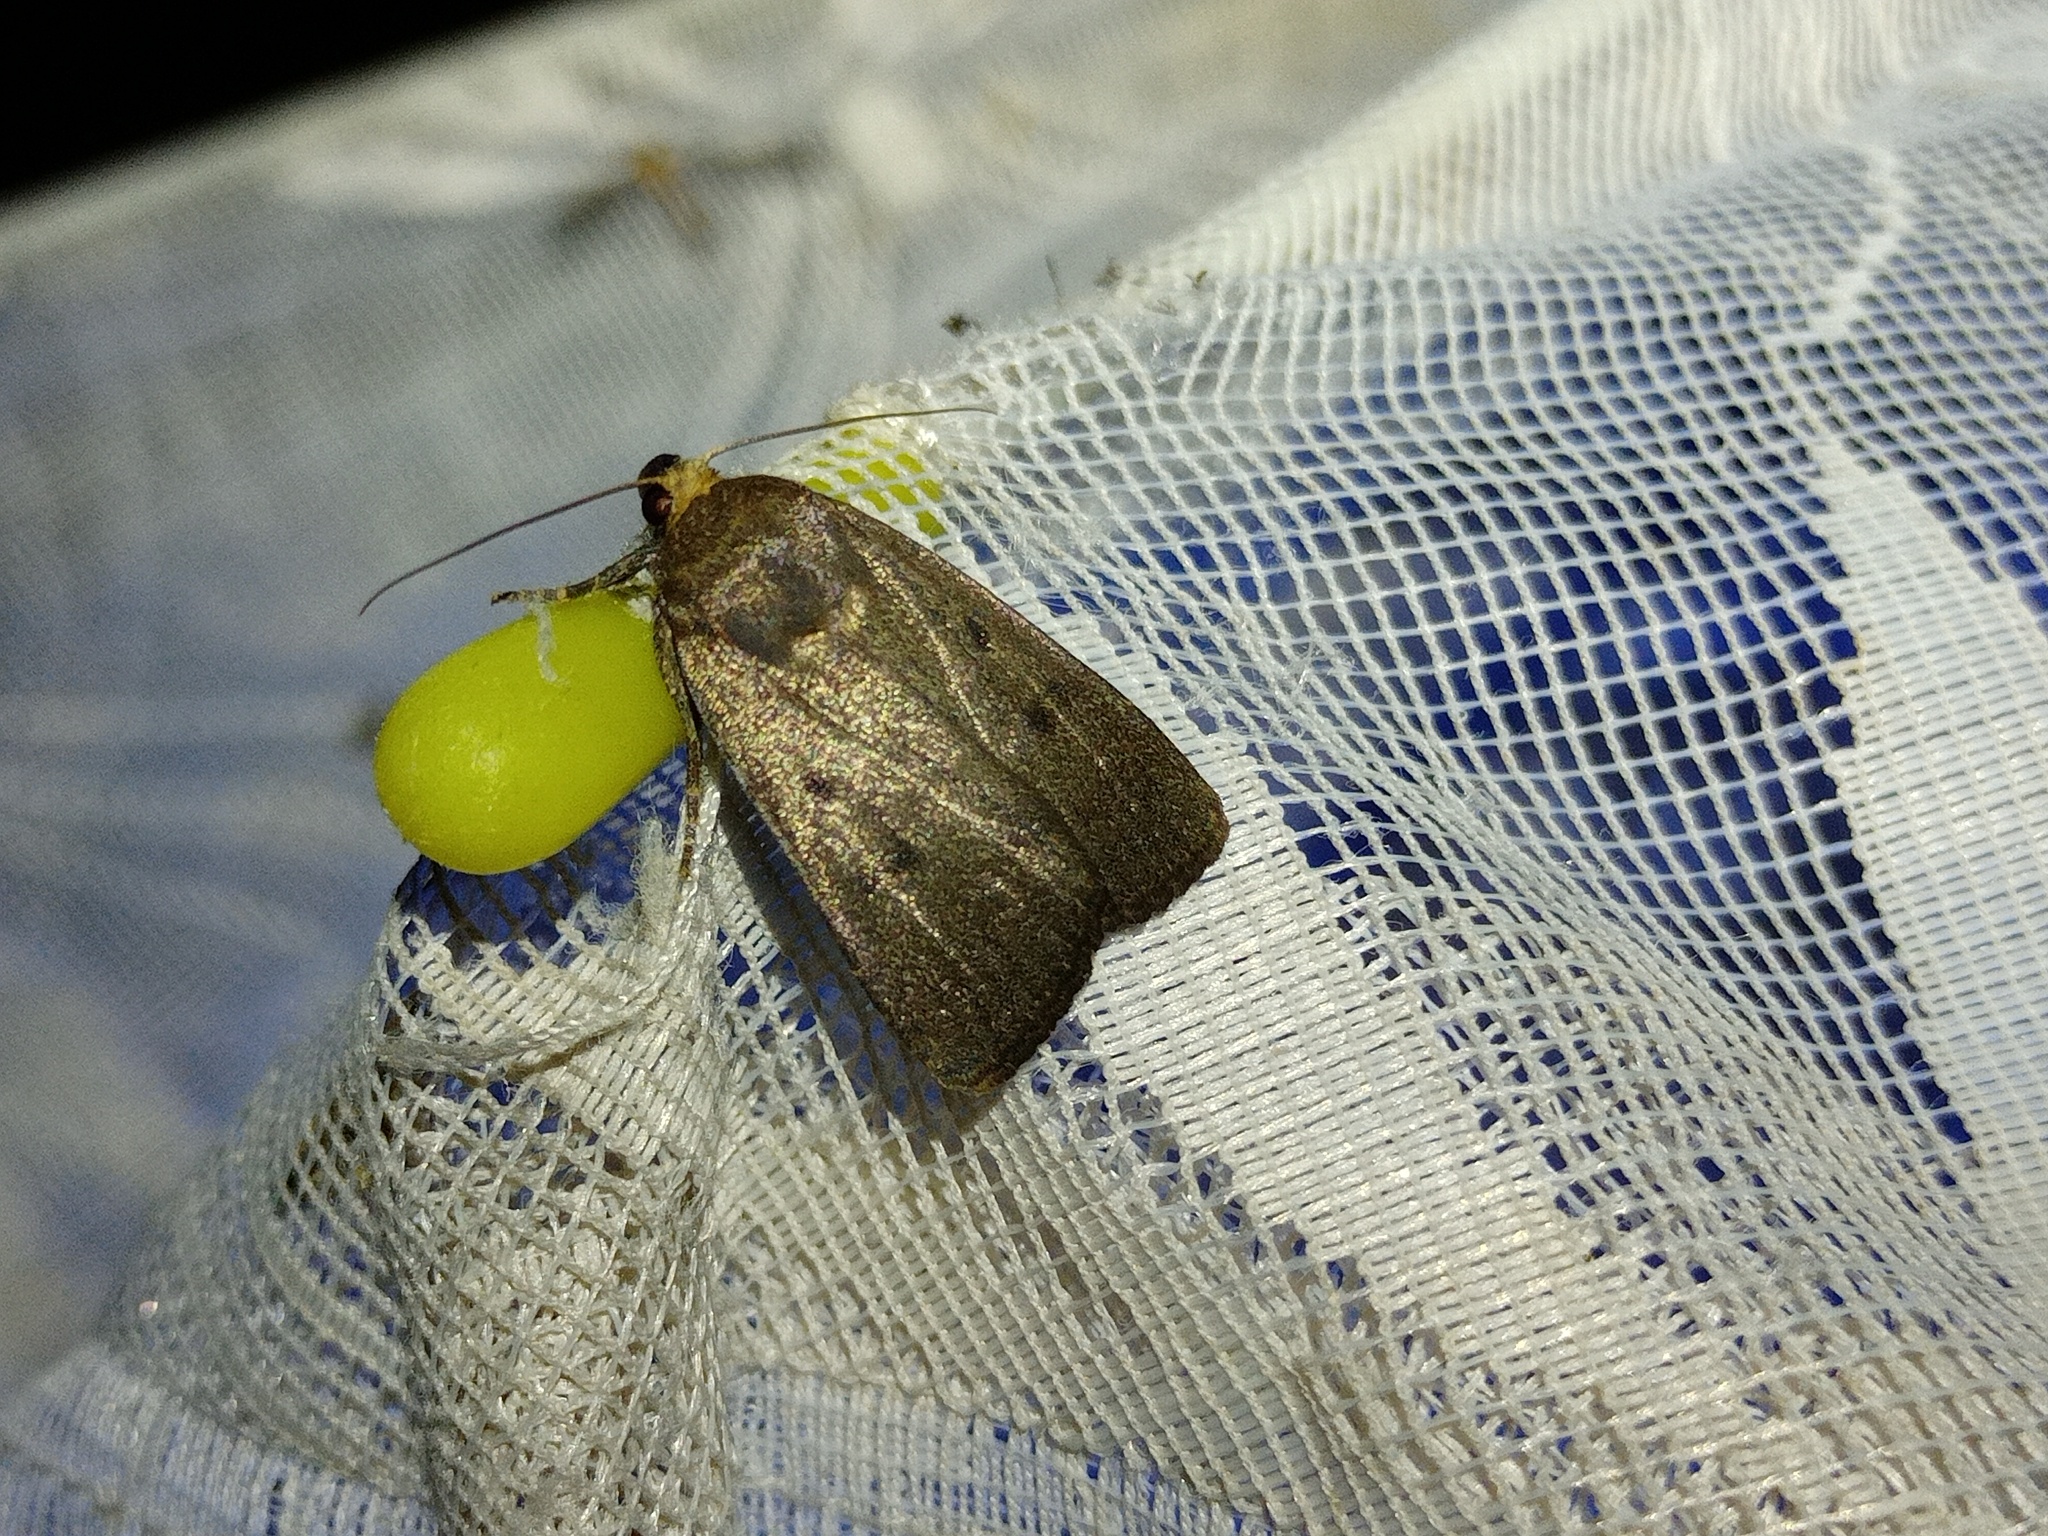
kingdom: Animalia
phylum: Arthropoda
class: Insecta
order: Lepidoptera
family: Noctuidae
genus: Amphipyra
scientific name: Amphipyra tragopoginis
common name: Mouse moth
